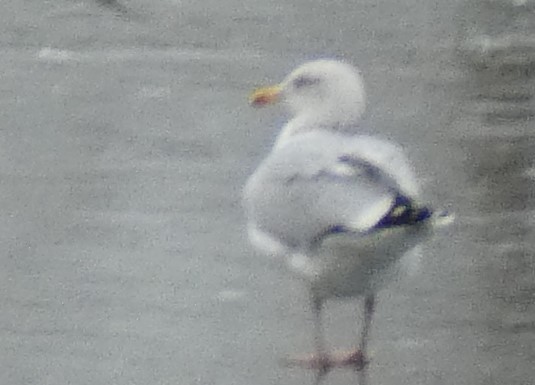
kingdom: Animalia
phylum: Chordata
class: Aves
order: Charadriiformes
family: Laridae
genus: Larus
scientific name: Larus argentatus
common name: Herring gull
